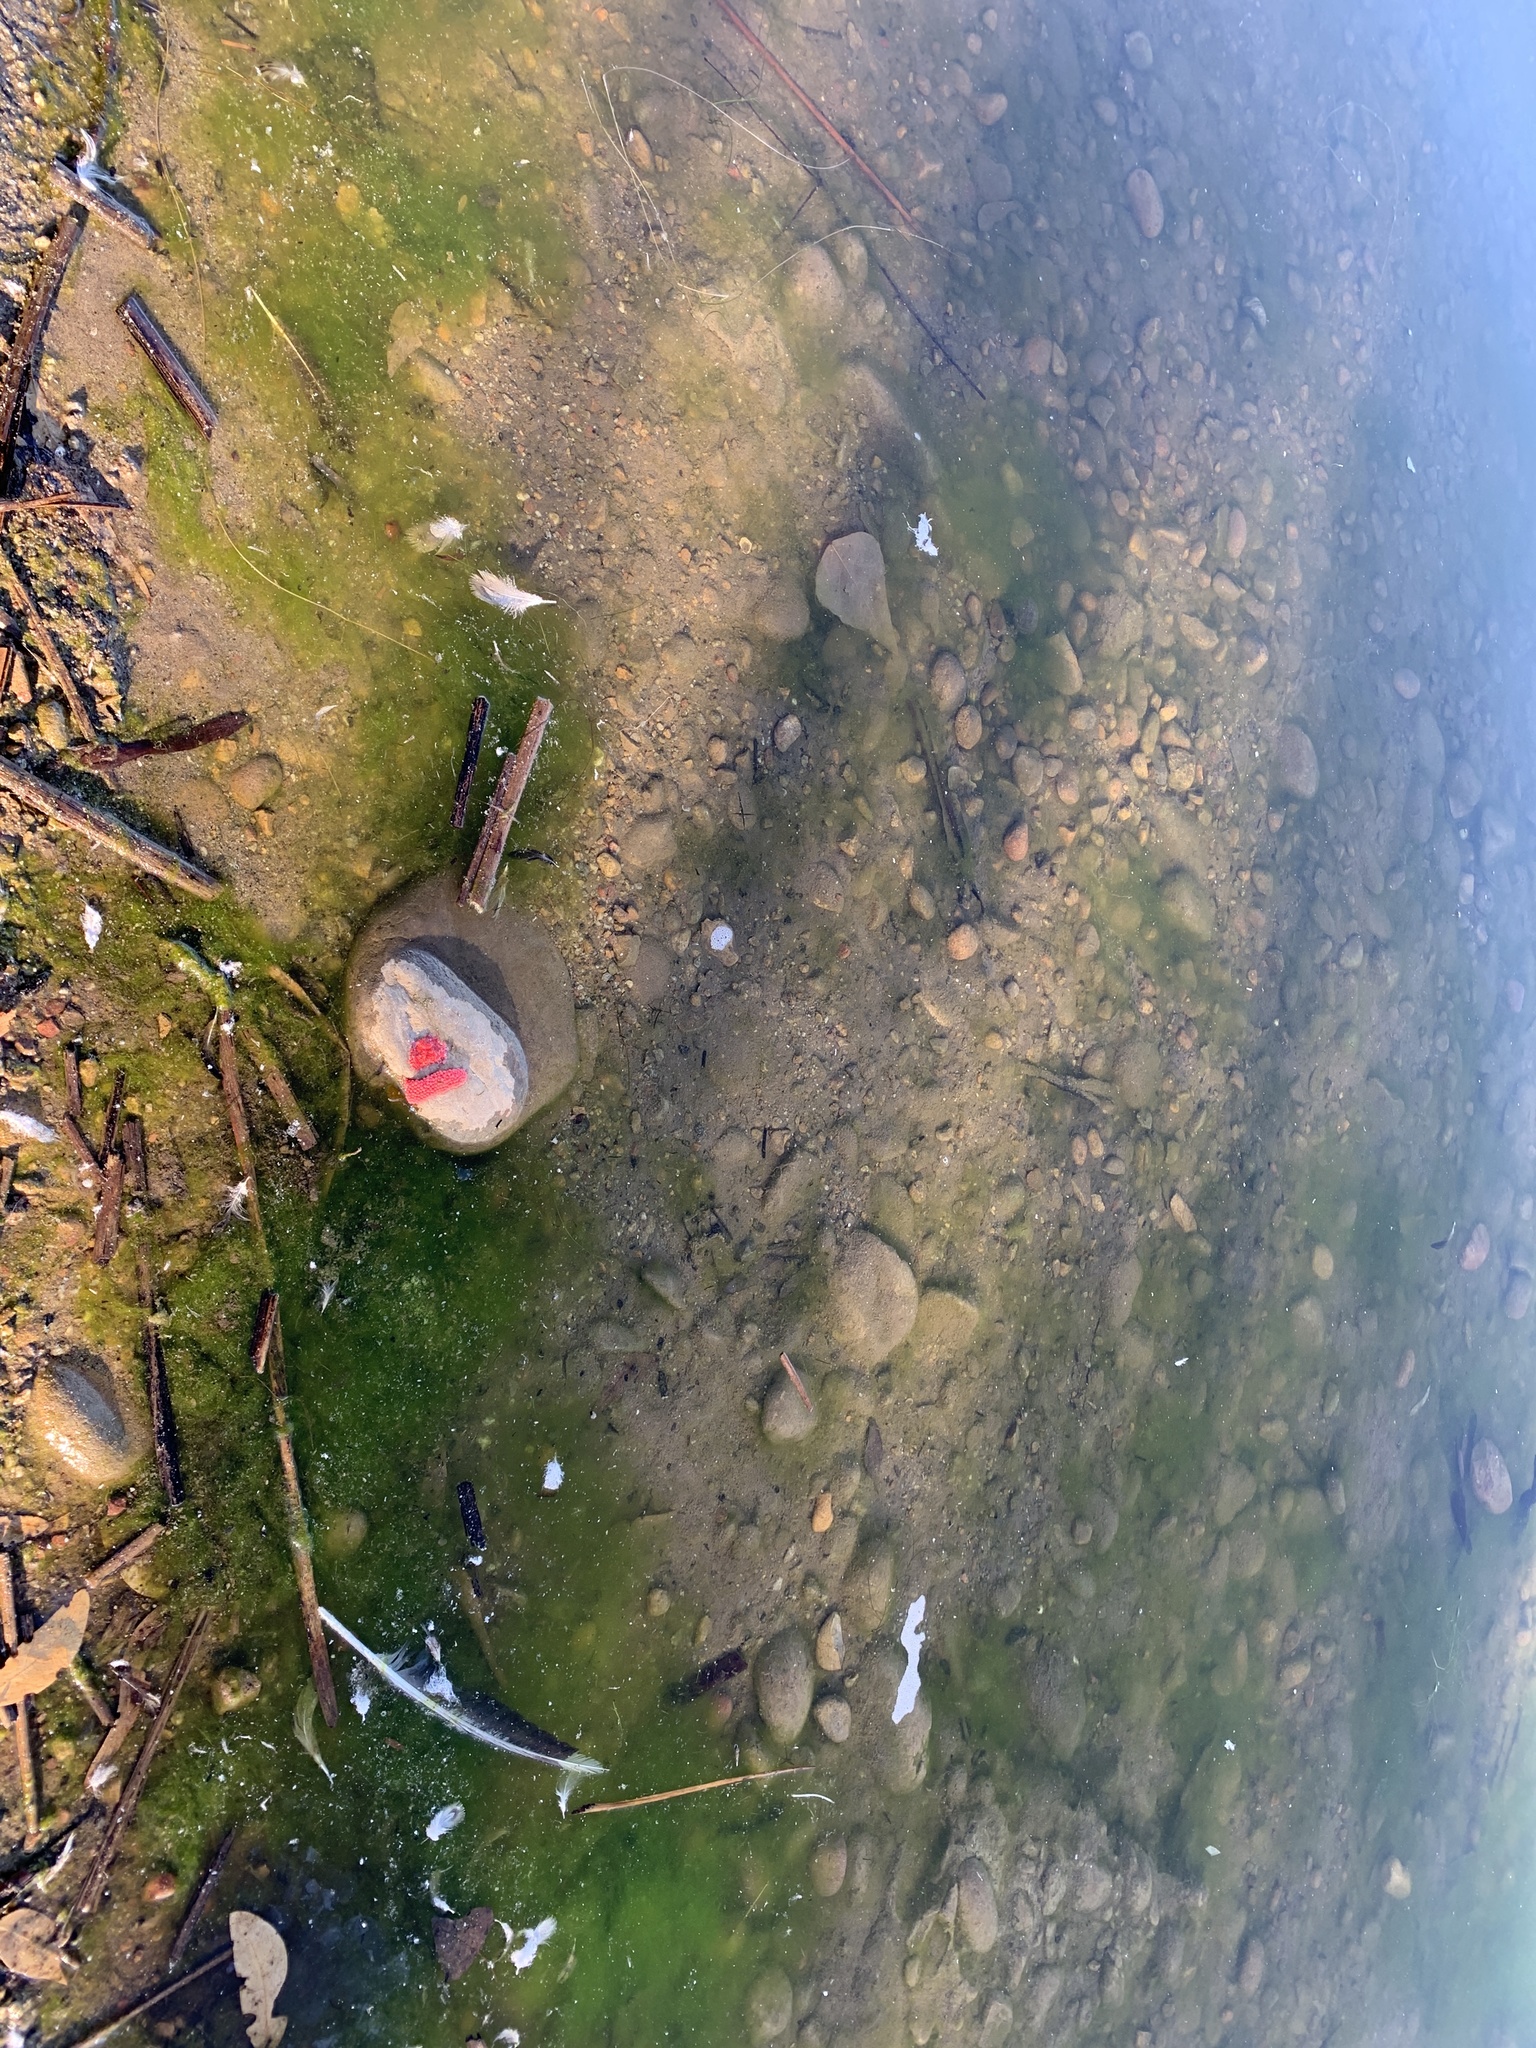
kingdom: Animalia
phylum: Mollusca
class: Gastropoda
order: Architaenioglossa
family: Ampullariidae
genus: Pomacea
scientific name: Pomacea canaliculata
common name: Channeled applesnail
